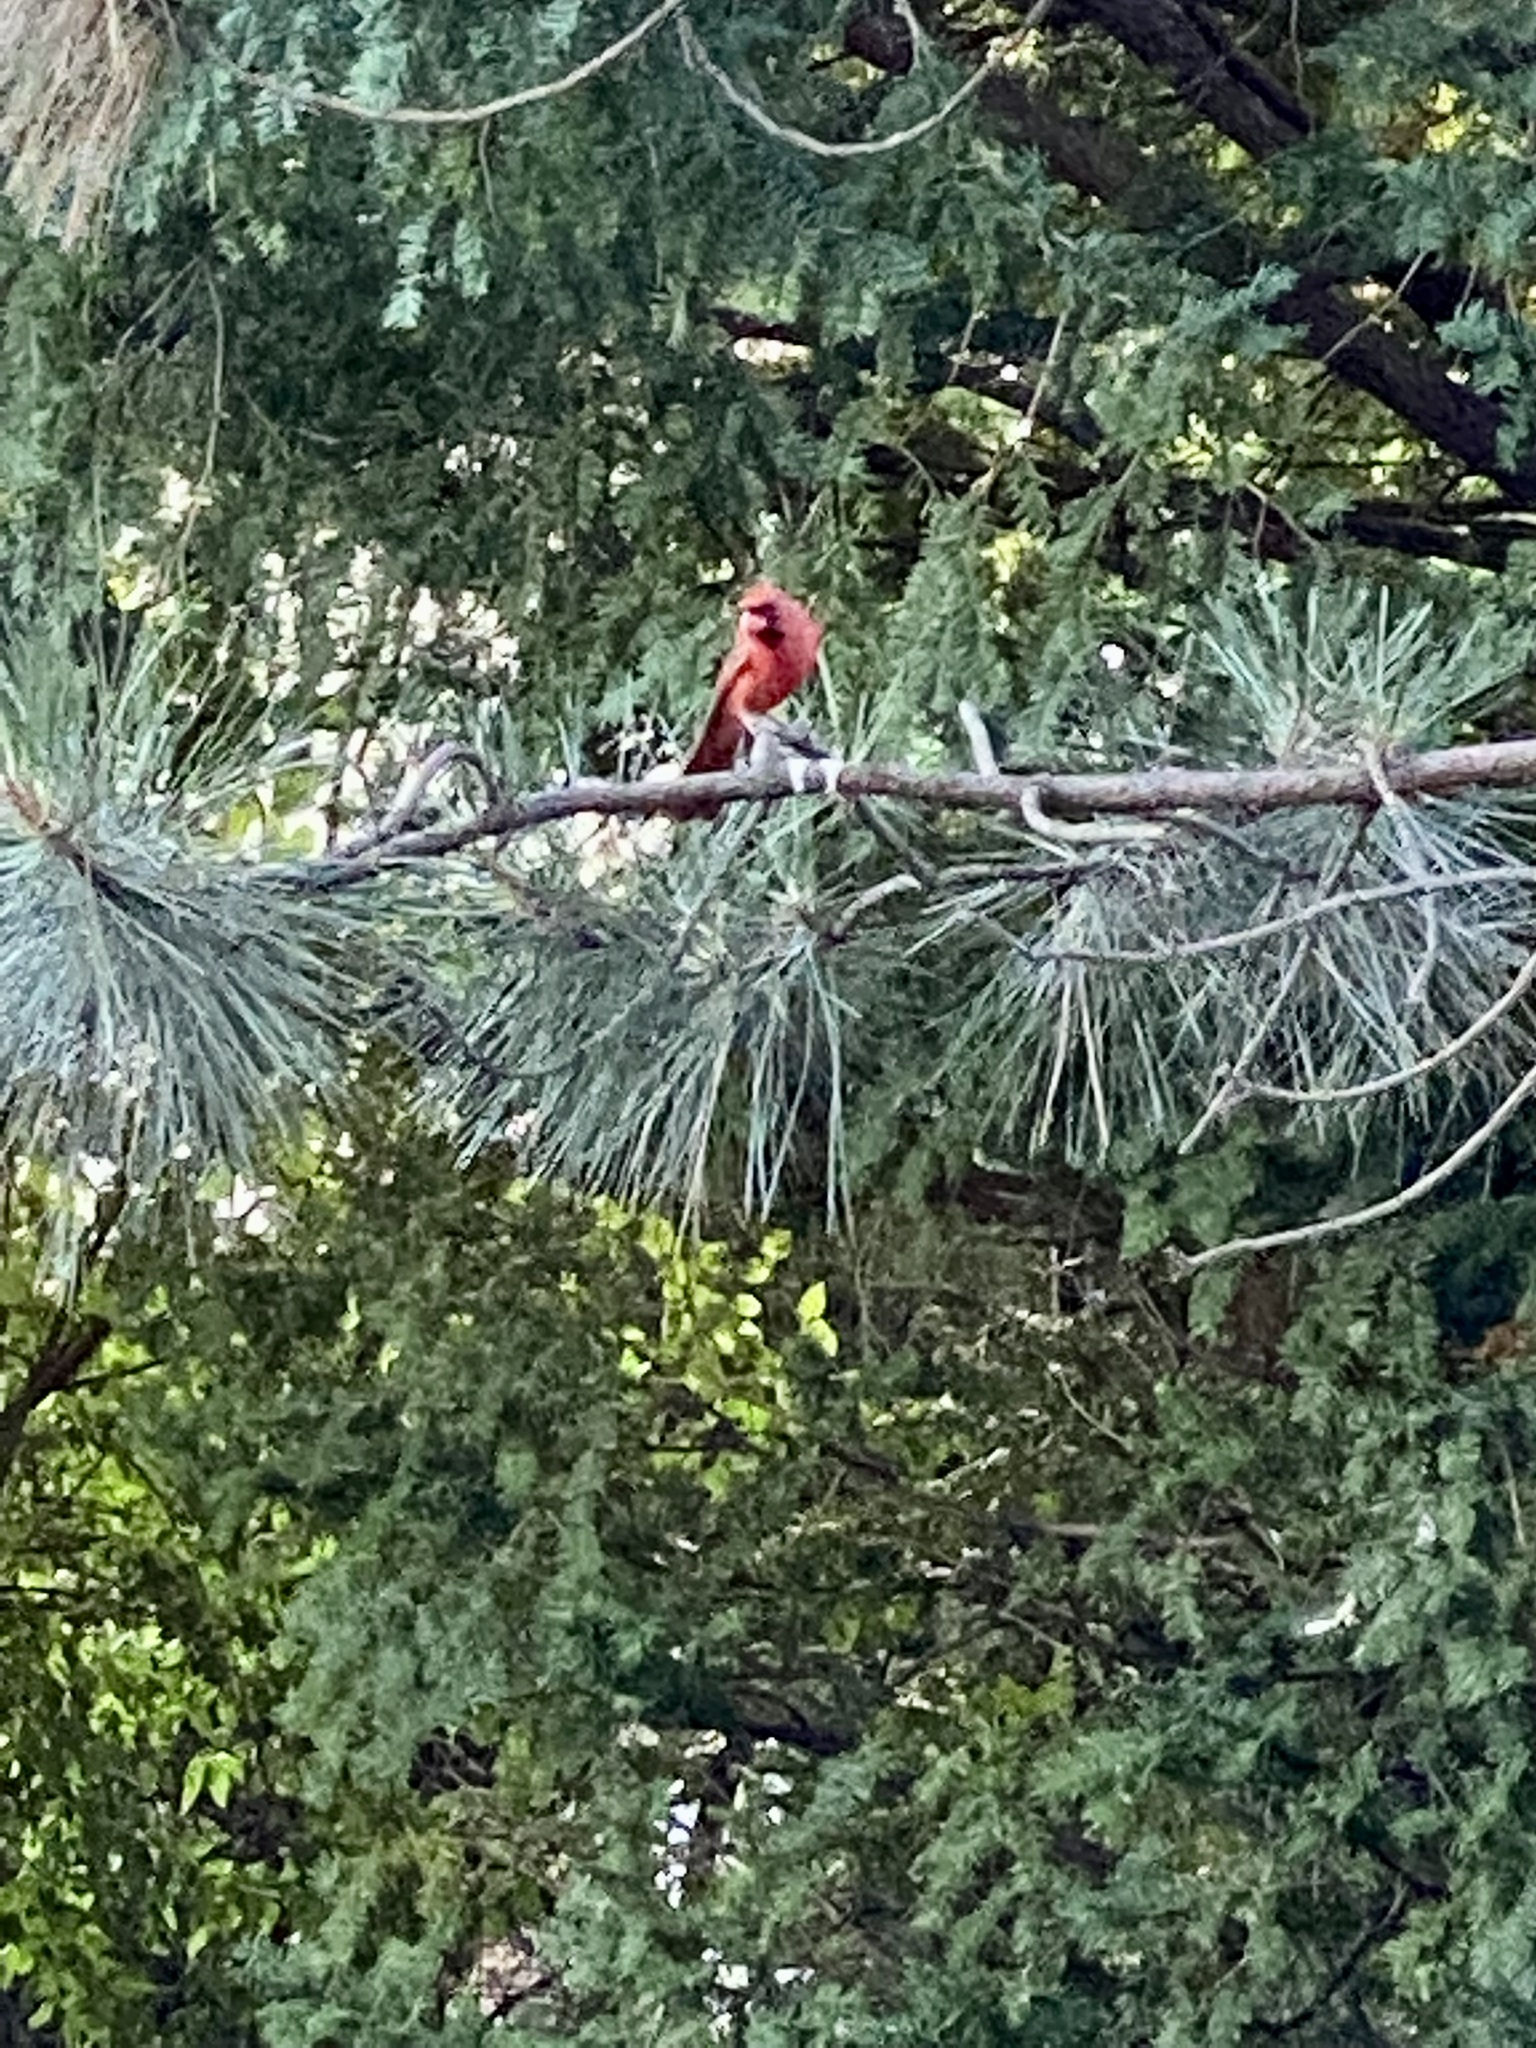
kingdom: Animalia
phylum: Chordata
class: Aves
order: Passeriformes
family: Cardinalidae
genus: Cardinalis
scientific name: Cardinalis cardinalis
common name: Northern cardinal
